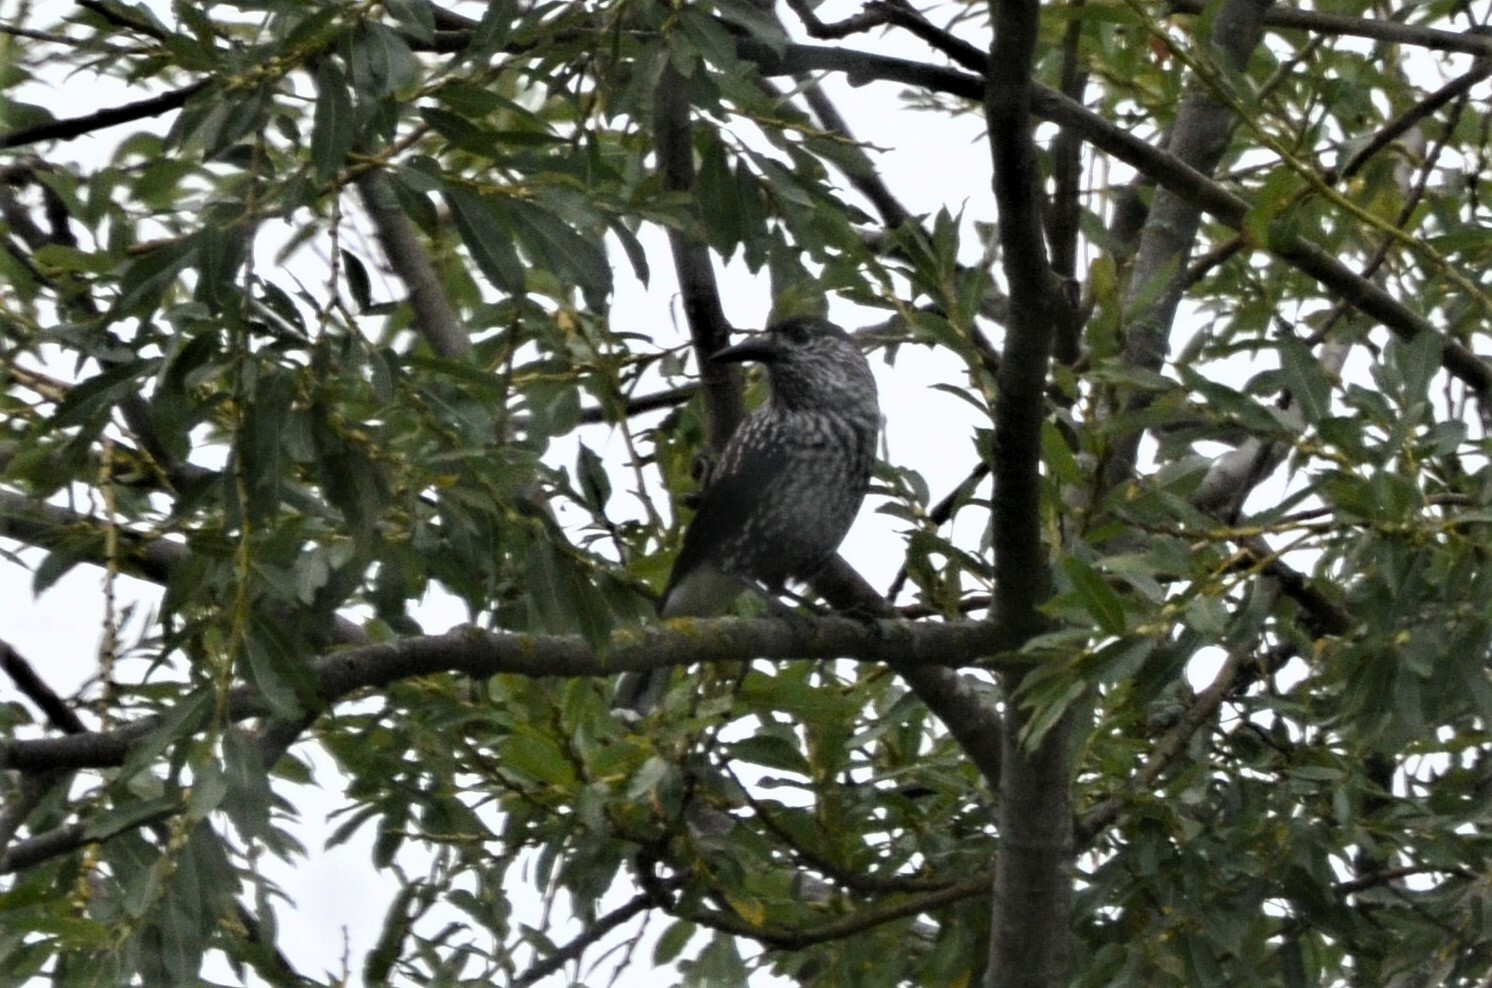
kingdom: Animalia
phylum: Chordata
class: Aves
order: Passeriformes
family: Corvidae
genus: Nucifraga
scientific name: Nucifraga caryocatactes
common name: Spotted nutcracker
